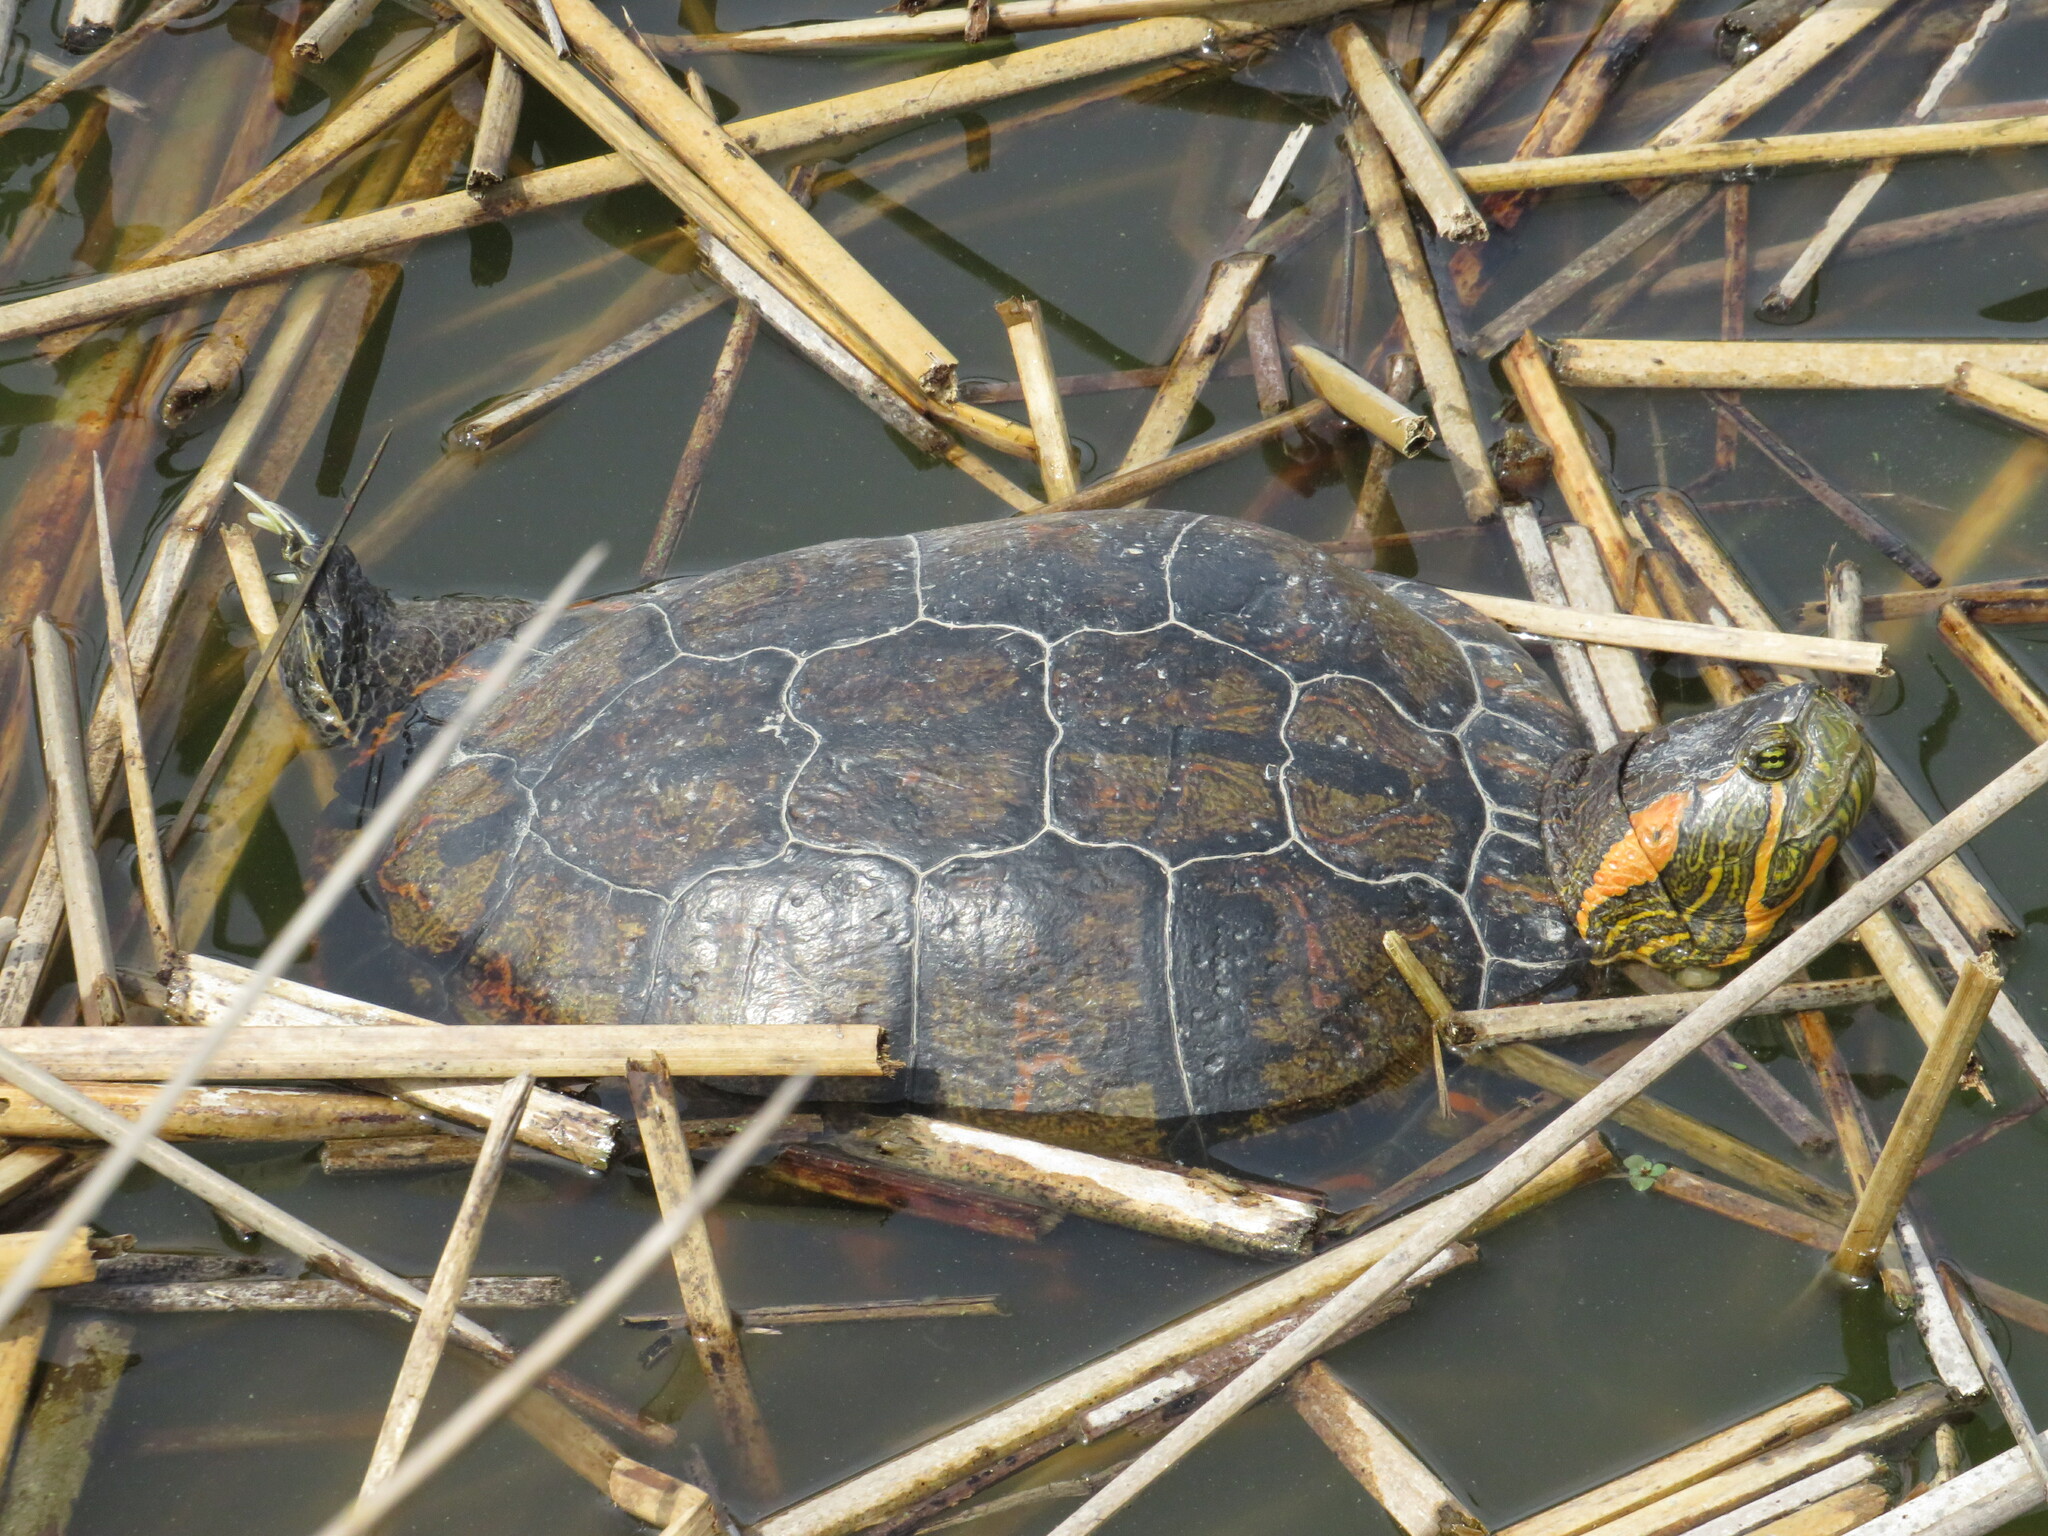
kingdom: Animalia
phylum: Chordata
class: Testudines
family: Emydidae
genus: Trachemys
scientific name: Trachemys dorbigni
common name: Black-bellied slider
